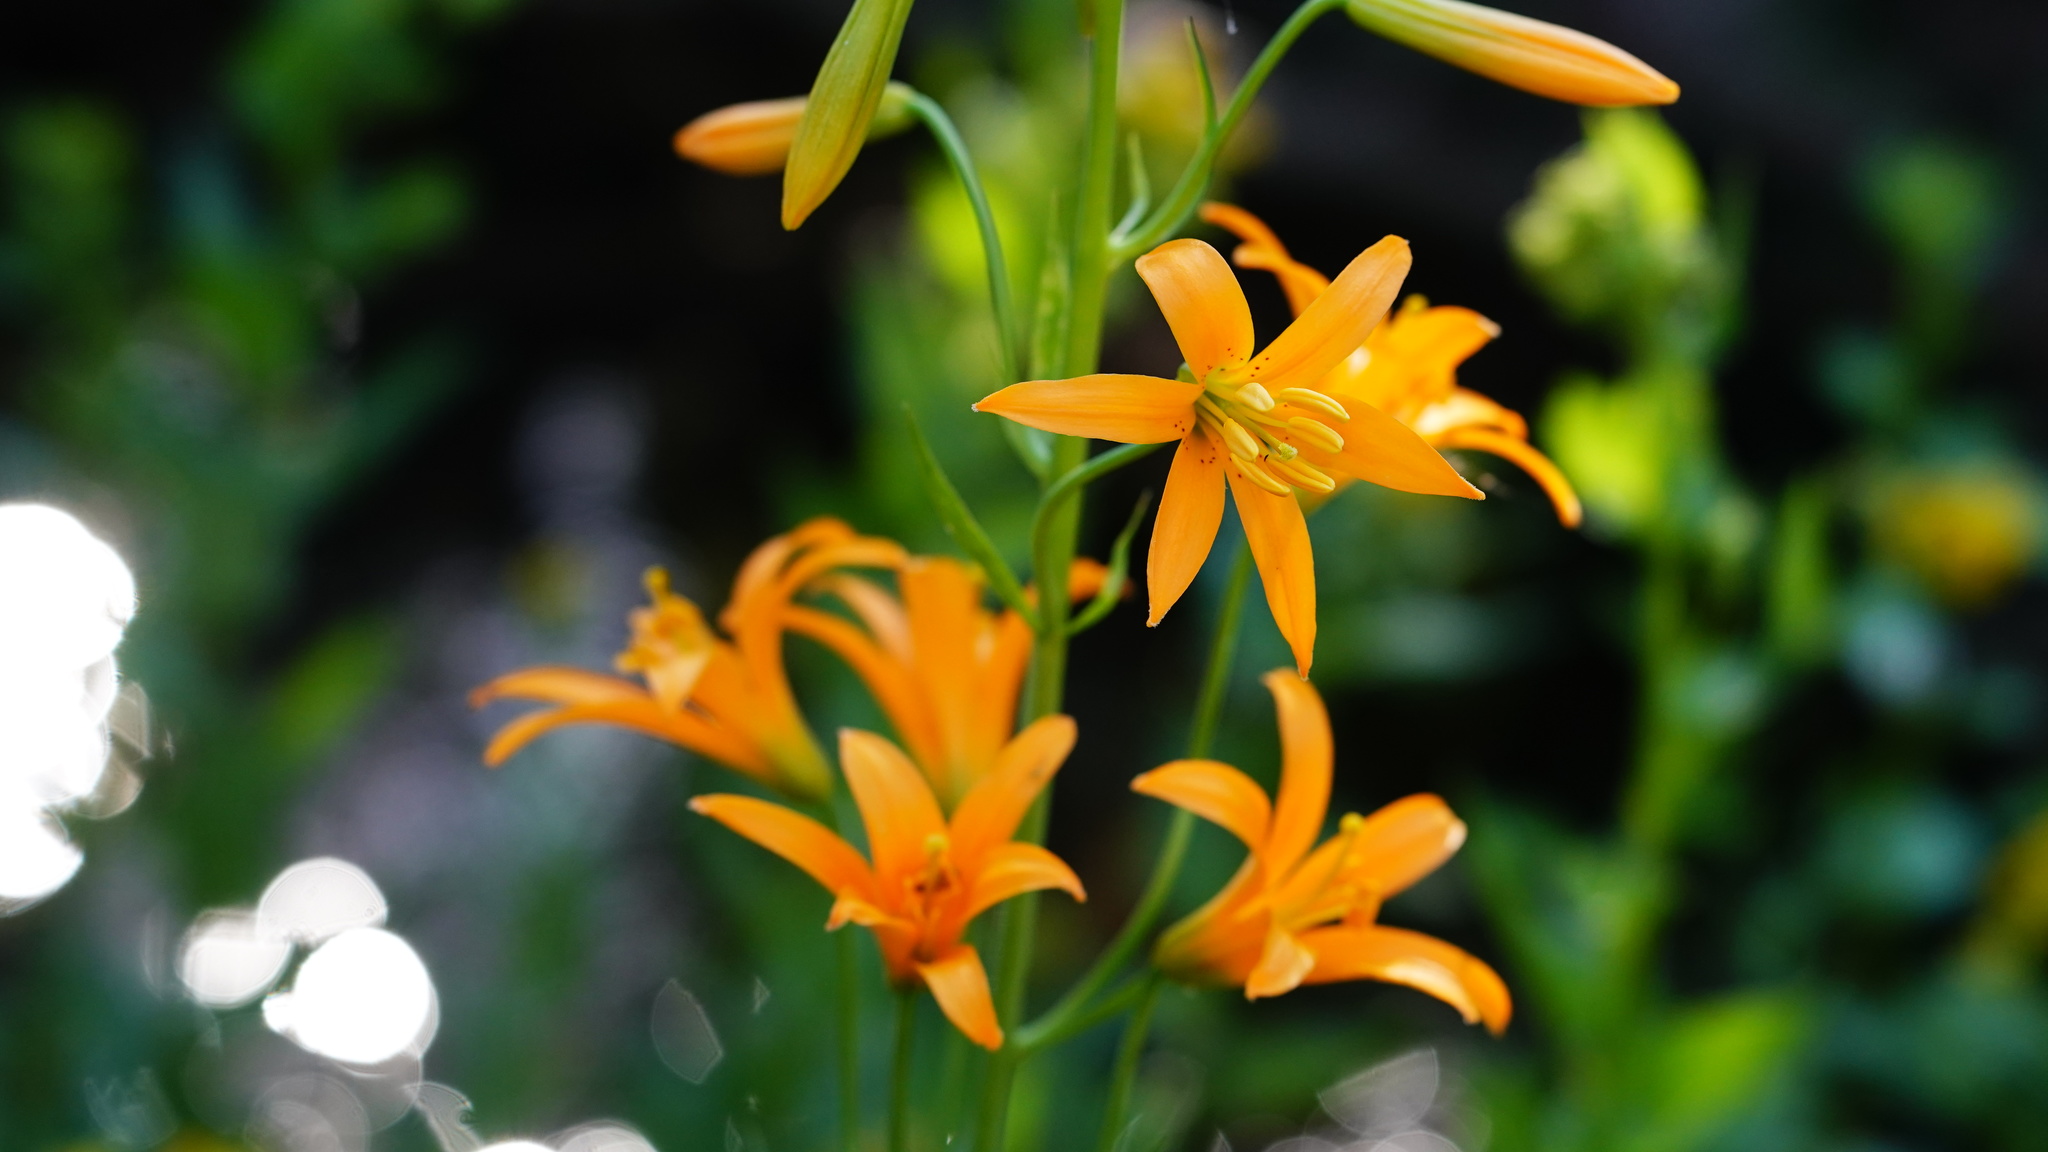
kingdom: Plantae
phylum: Tracheophyta
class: Liliopsida
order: Liliales
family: Liliaceae
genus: Lilium
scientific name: Lilium parvum
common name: Alpine lily
